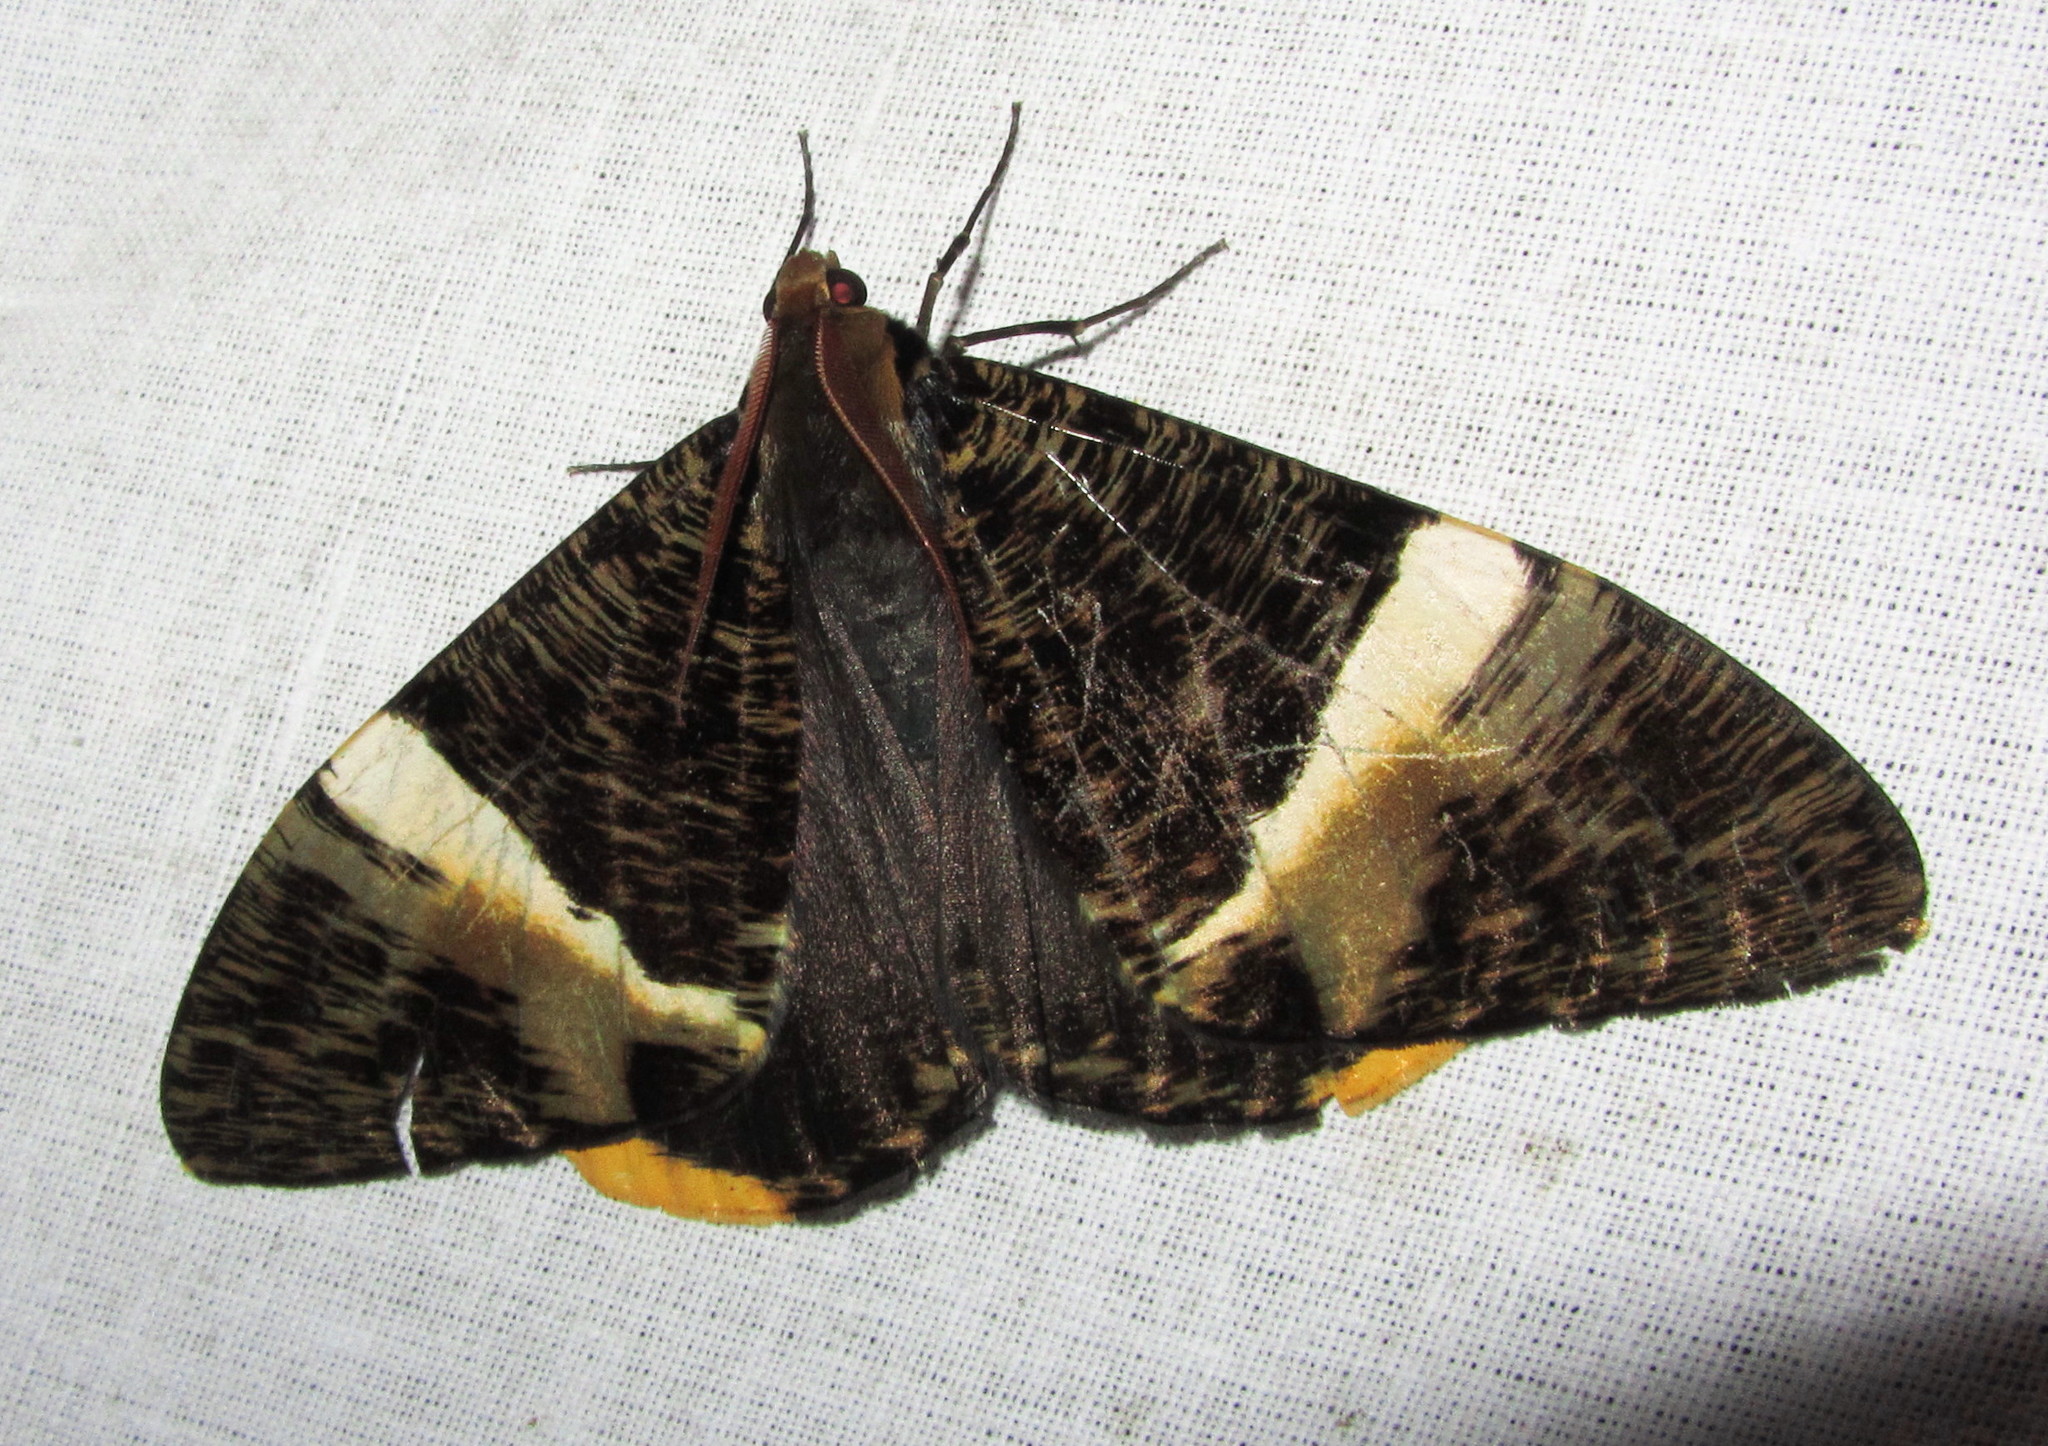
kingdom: Animalia
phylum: Arthropoda
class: Insecta
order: Lepidoptera
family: Geometridae
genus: Xandrames
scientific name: Xandrames albofasciata
